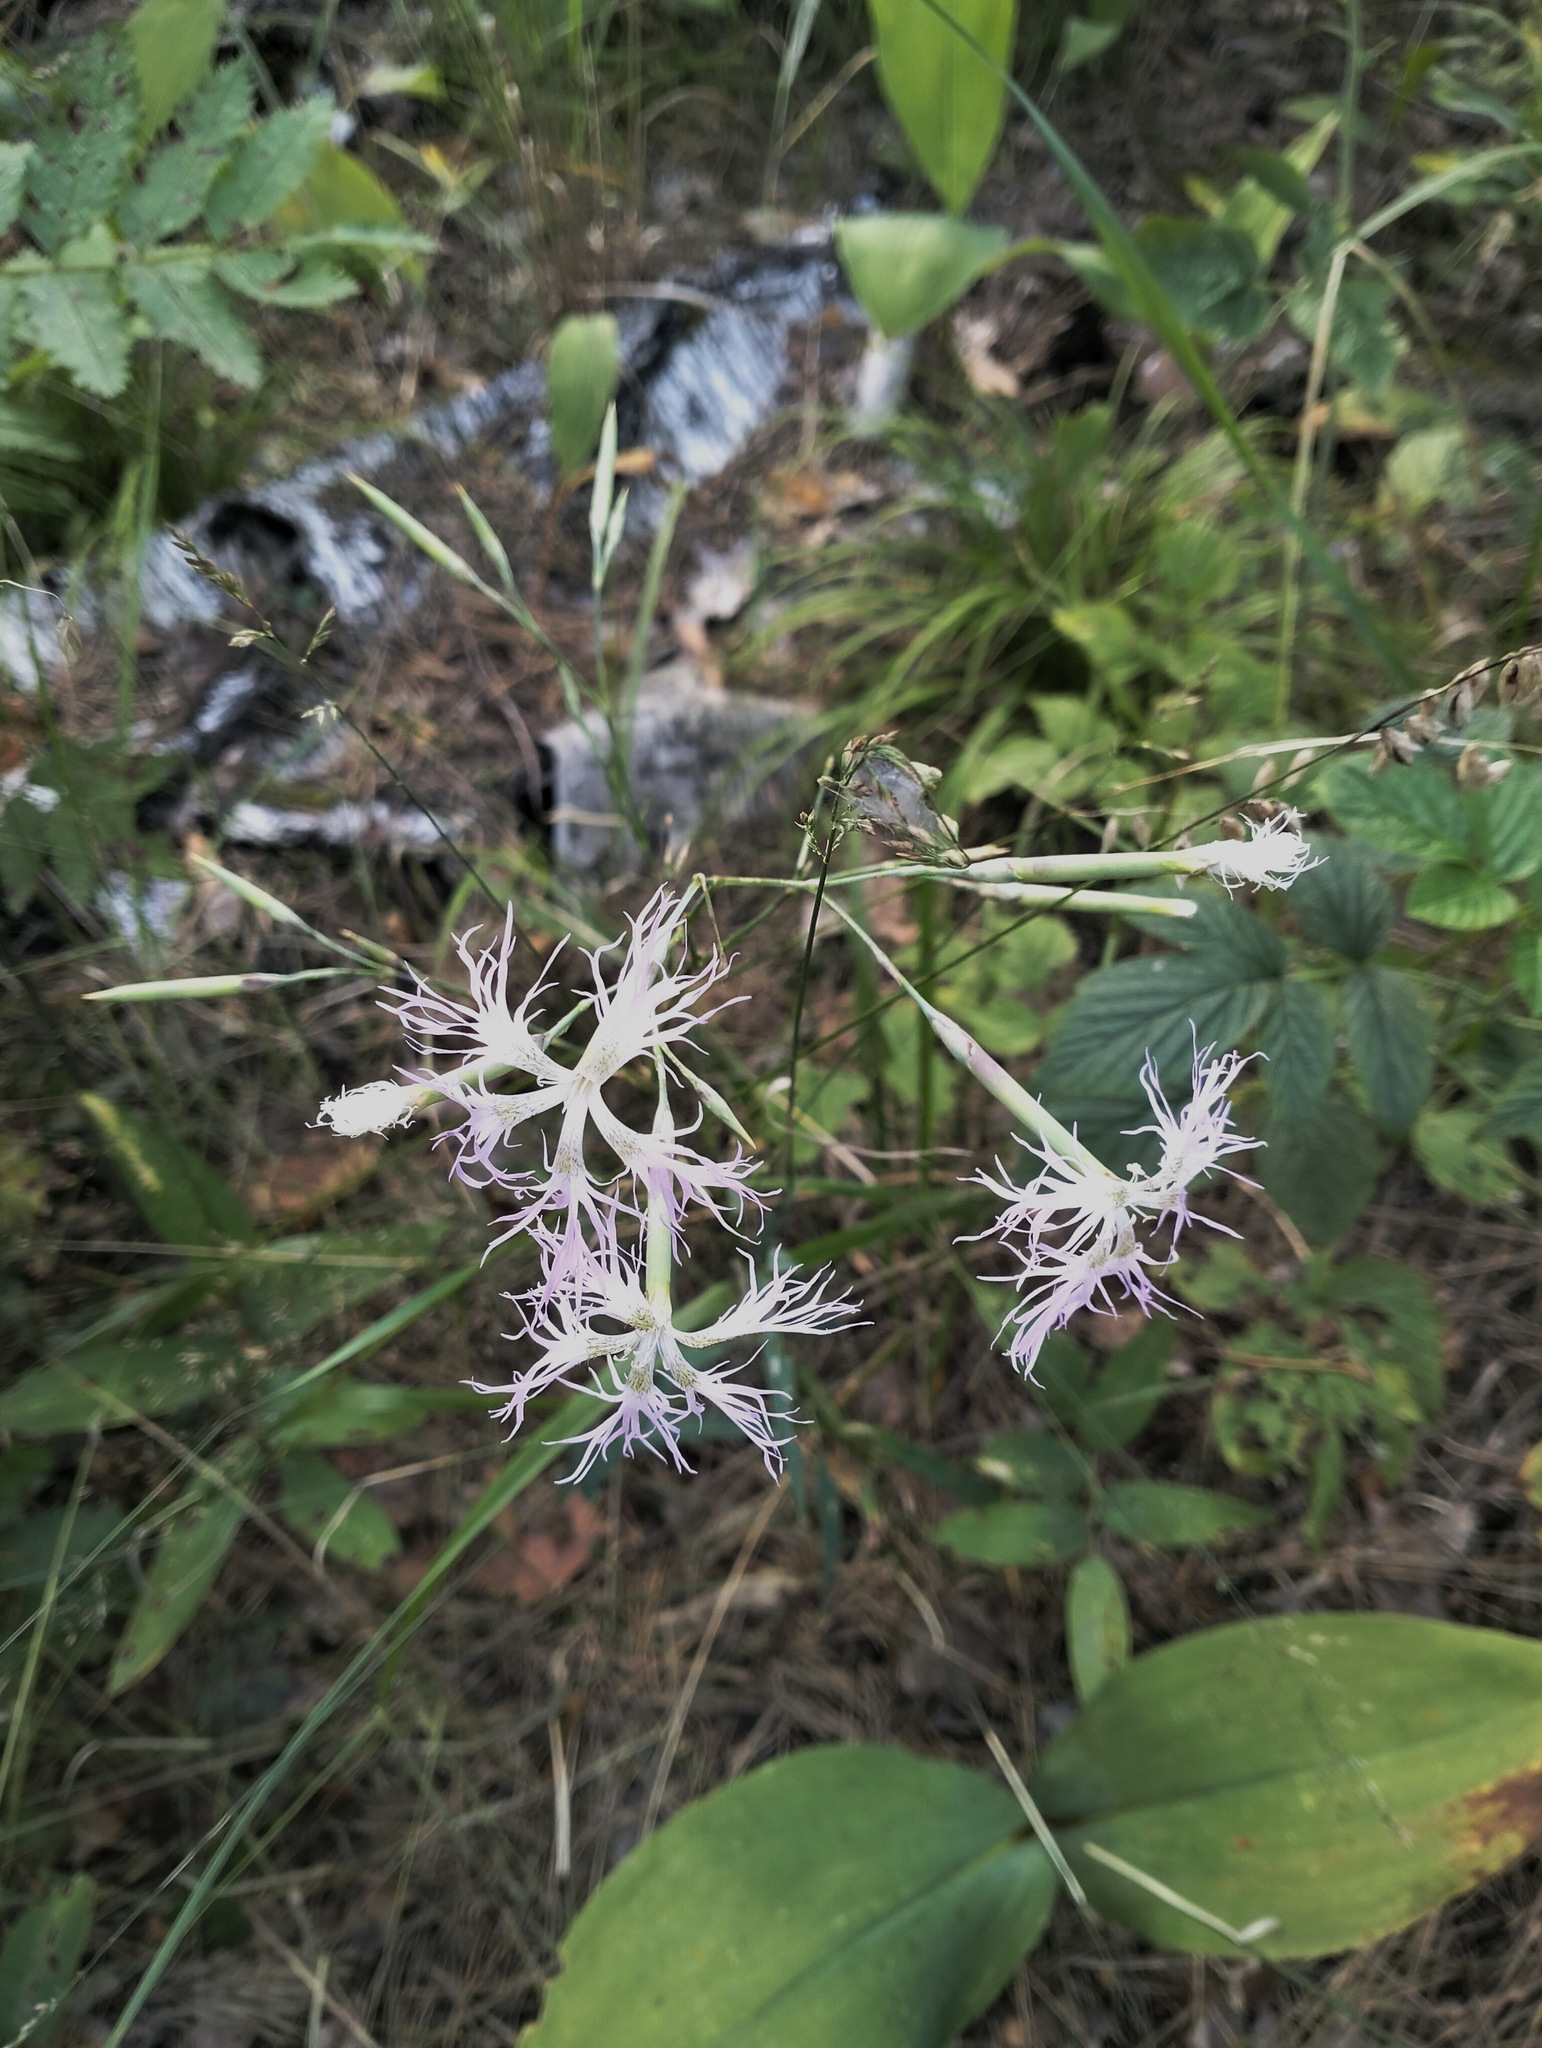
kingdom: Plantae
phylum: Tracheophyta
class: Magnoliopsida
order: Caryophyllales
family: Caryophyllaceae
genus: Dianthus
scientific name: Dianthus superbus
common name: Fringed pink
